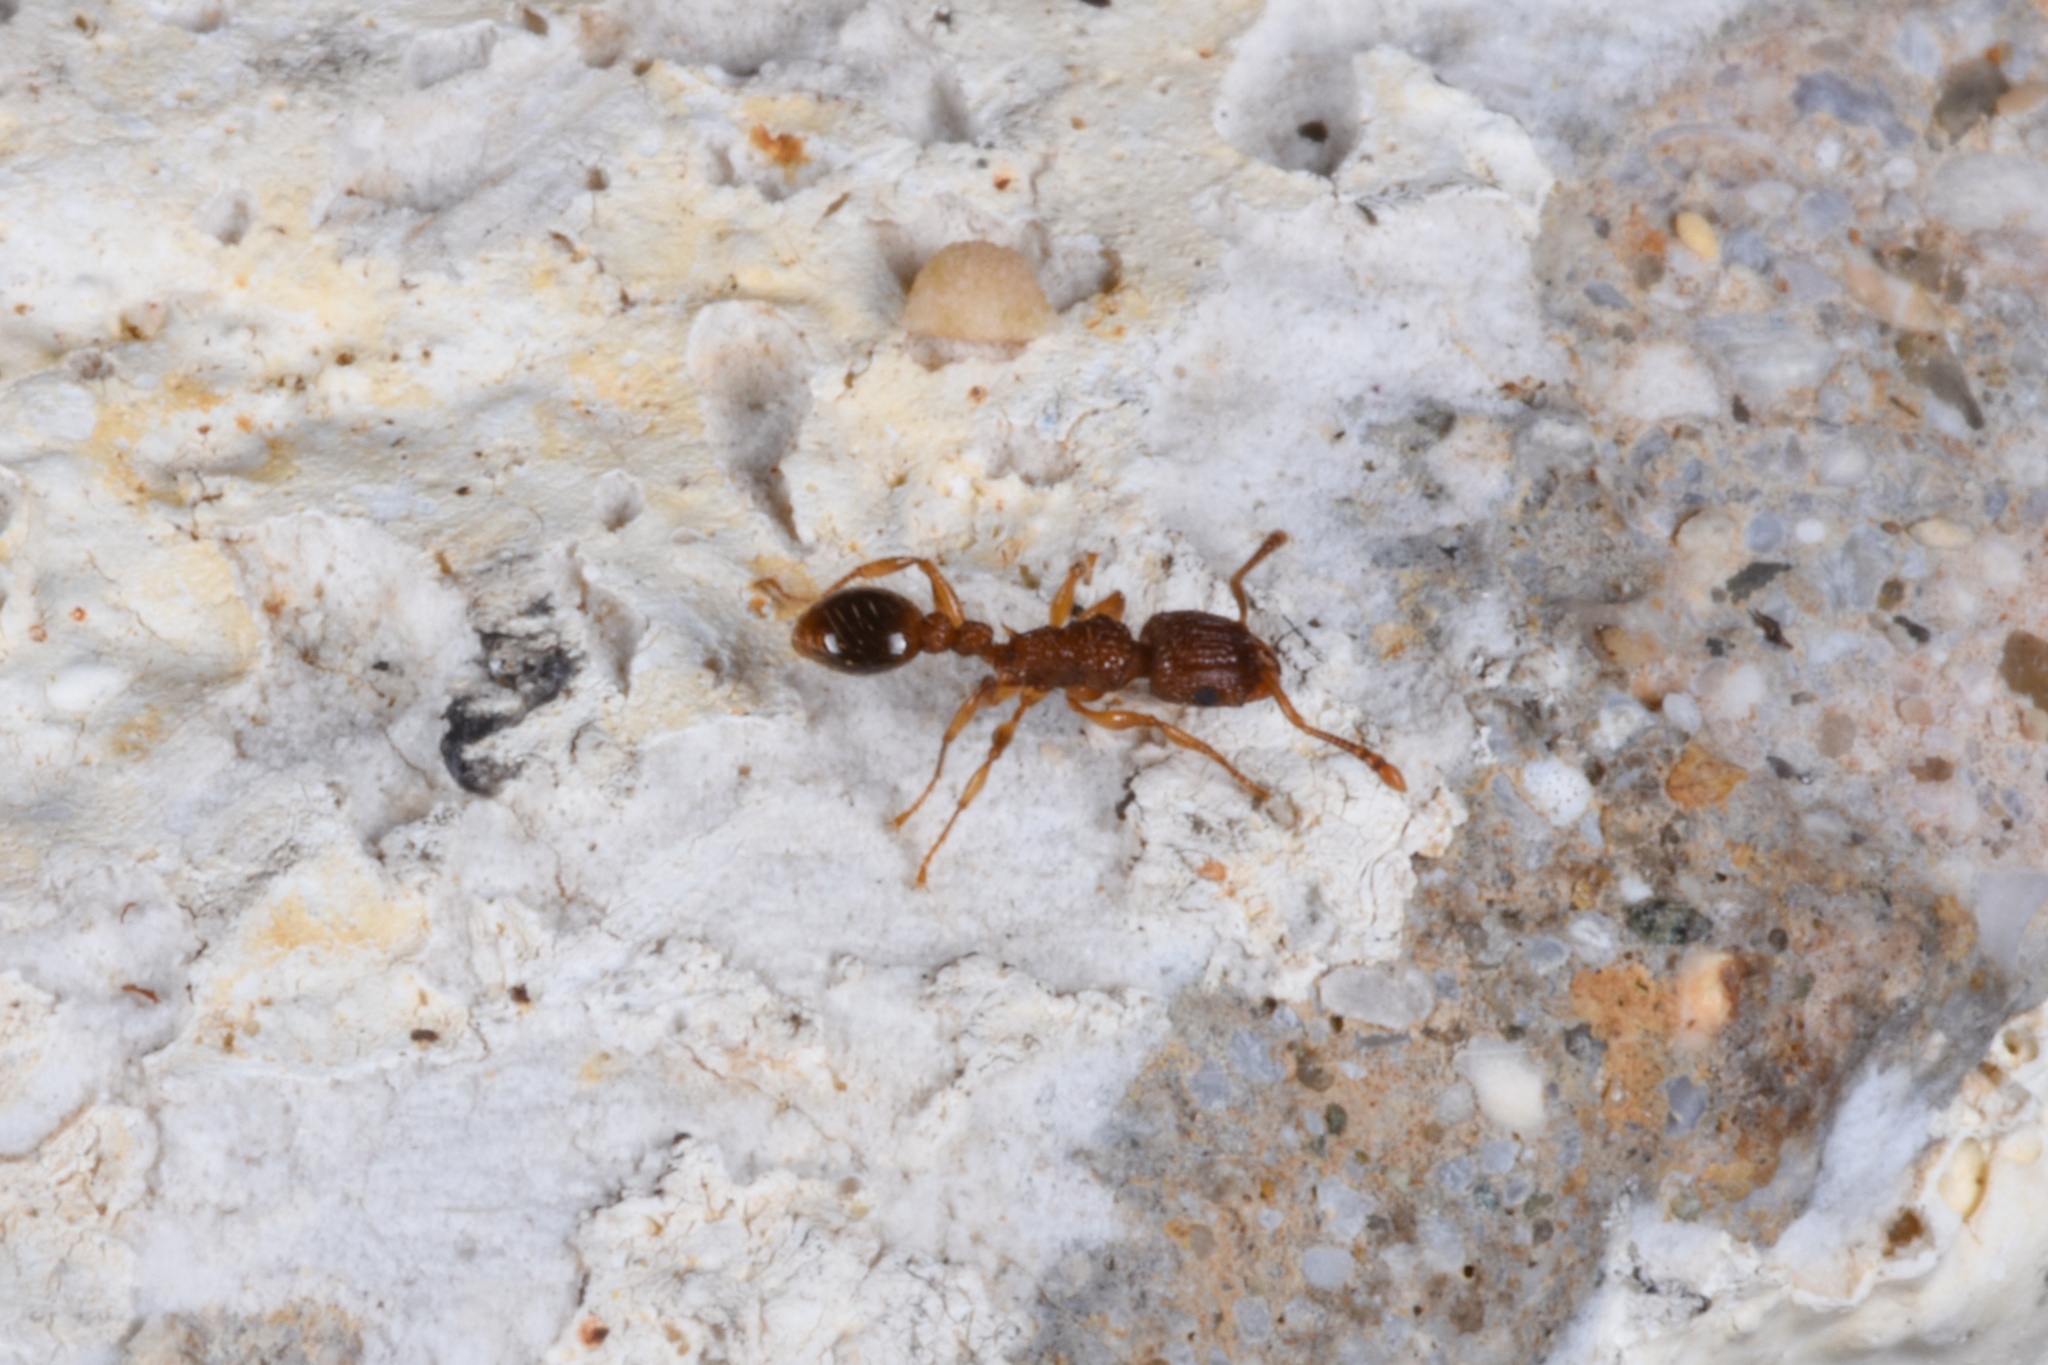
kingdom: Animalia
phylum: Arthropoda
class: Insecta
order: Hymenoptera
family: Formicidae
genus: Tetramorium
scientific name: Tetramorium bicarinatum
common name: Guinea ant
